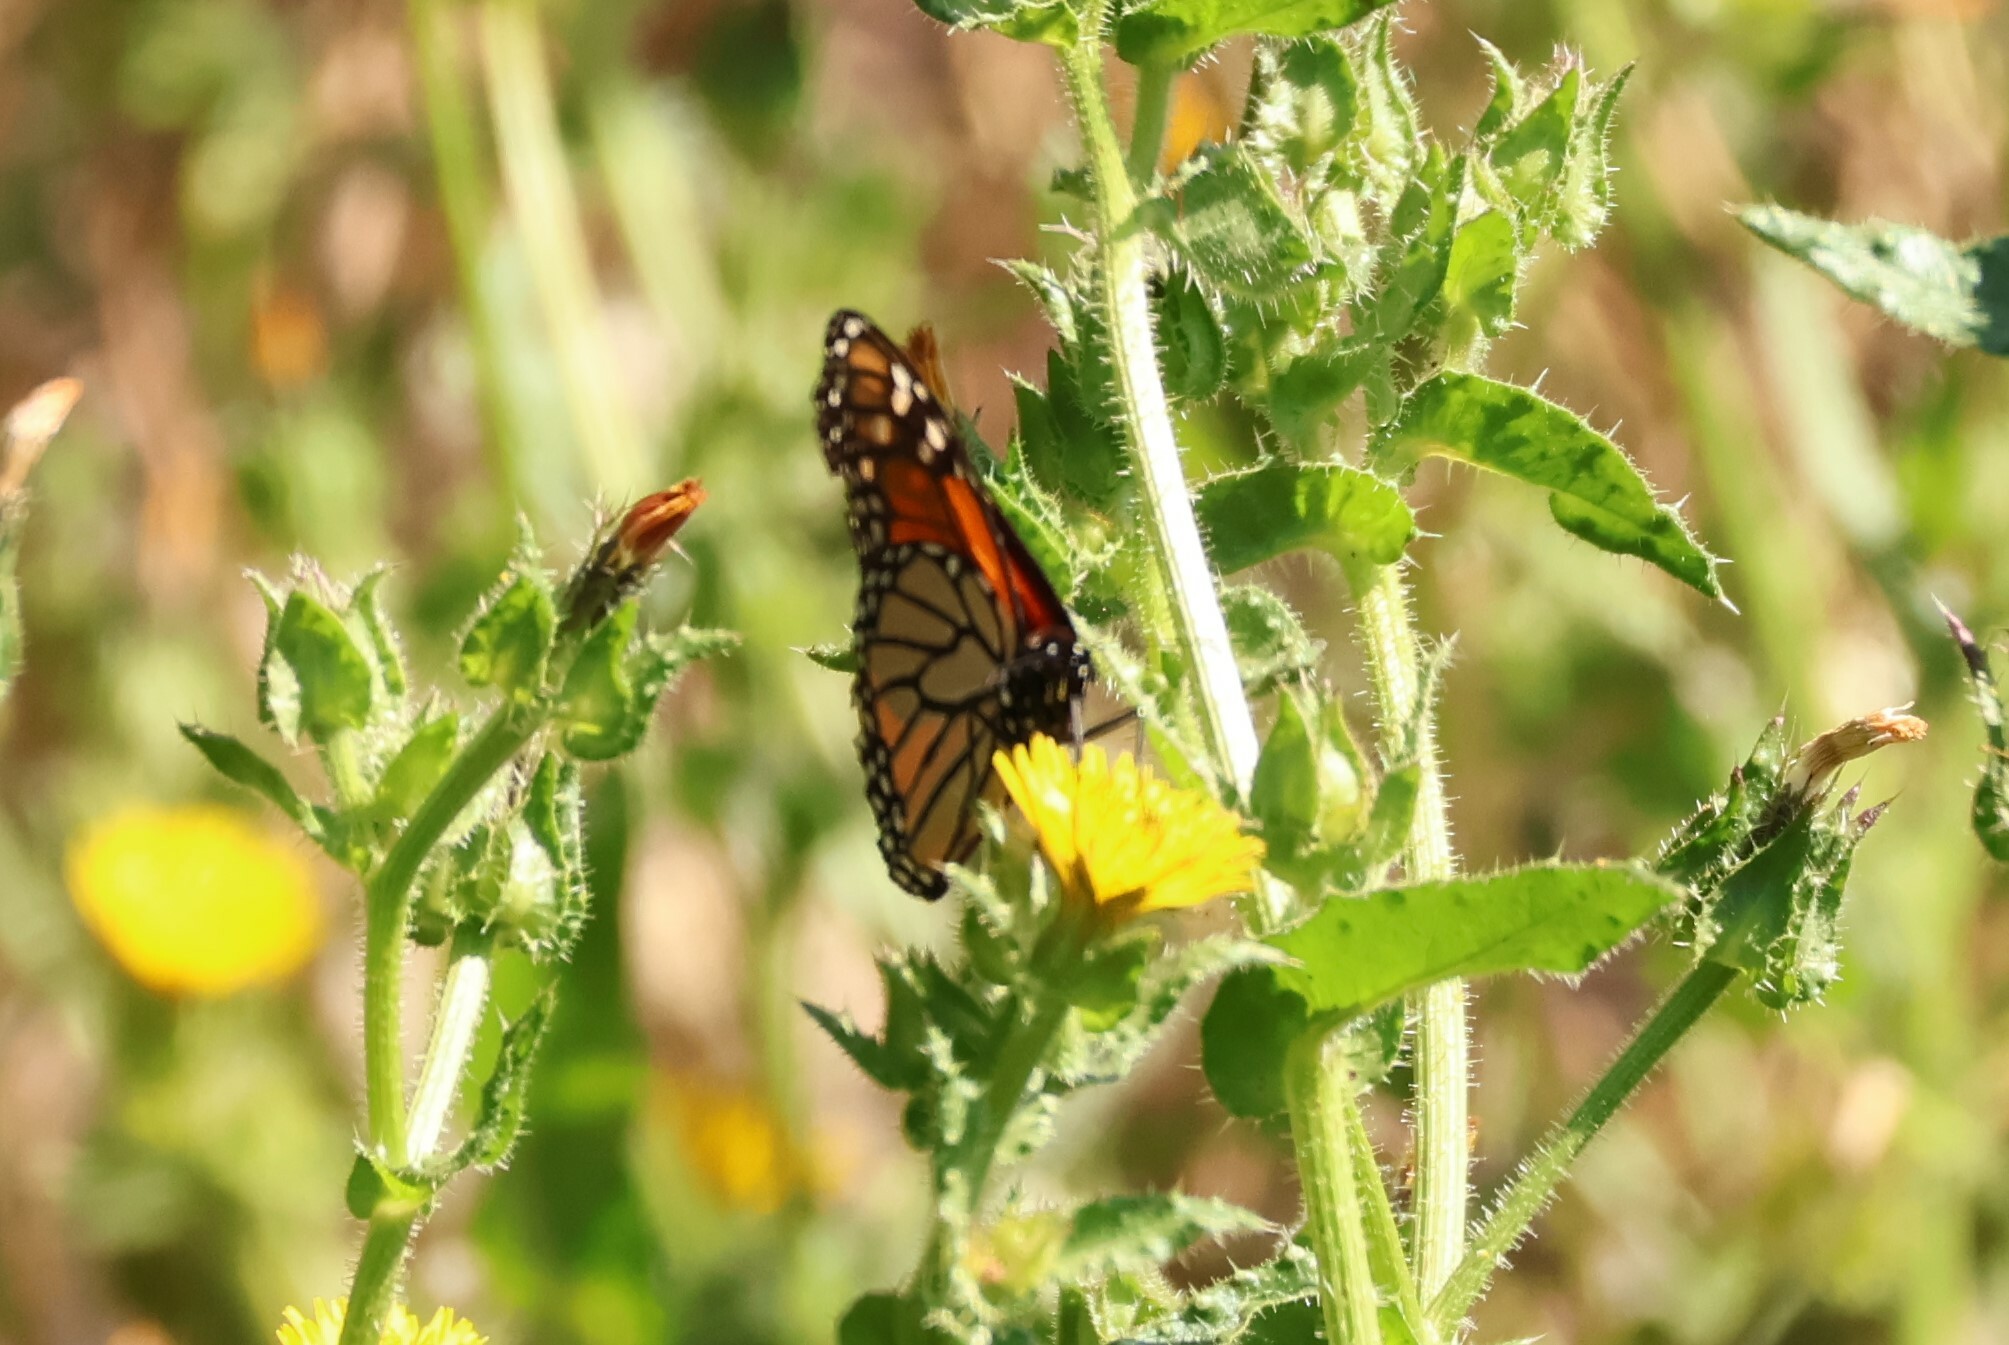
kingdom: Animalia
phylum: Arthropoda
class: Insecta
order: Lepidoptera
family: Nymphalidae
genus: Danaus
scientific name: Danaus plexippus
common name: Monarch
